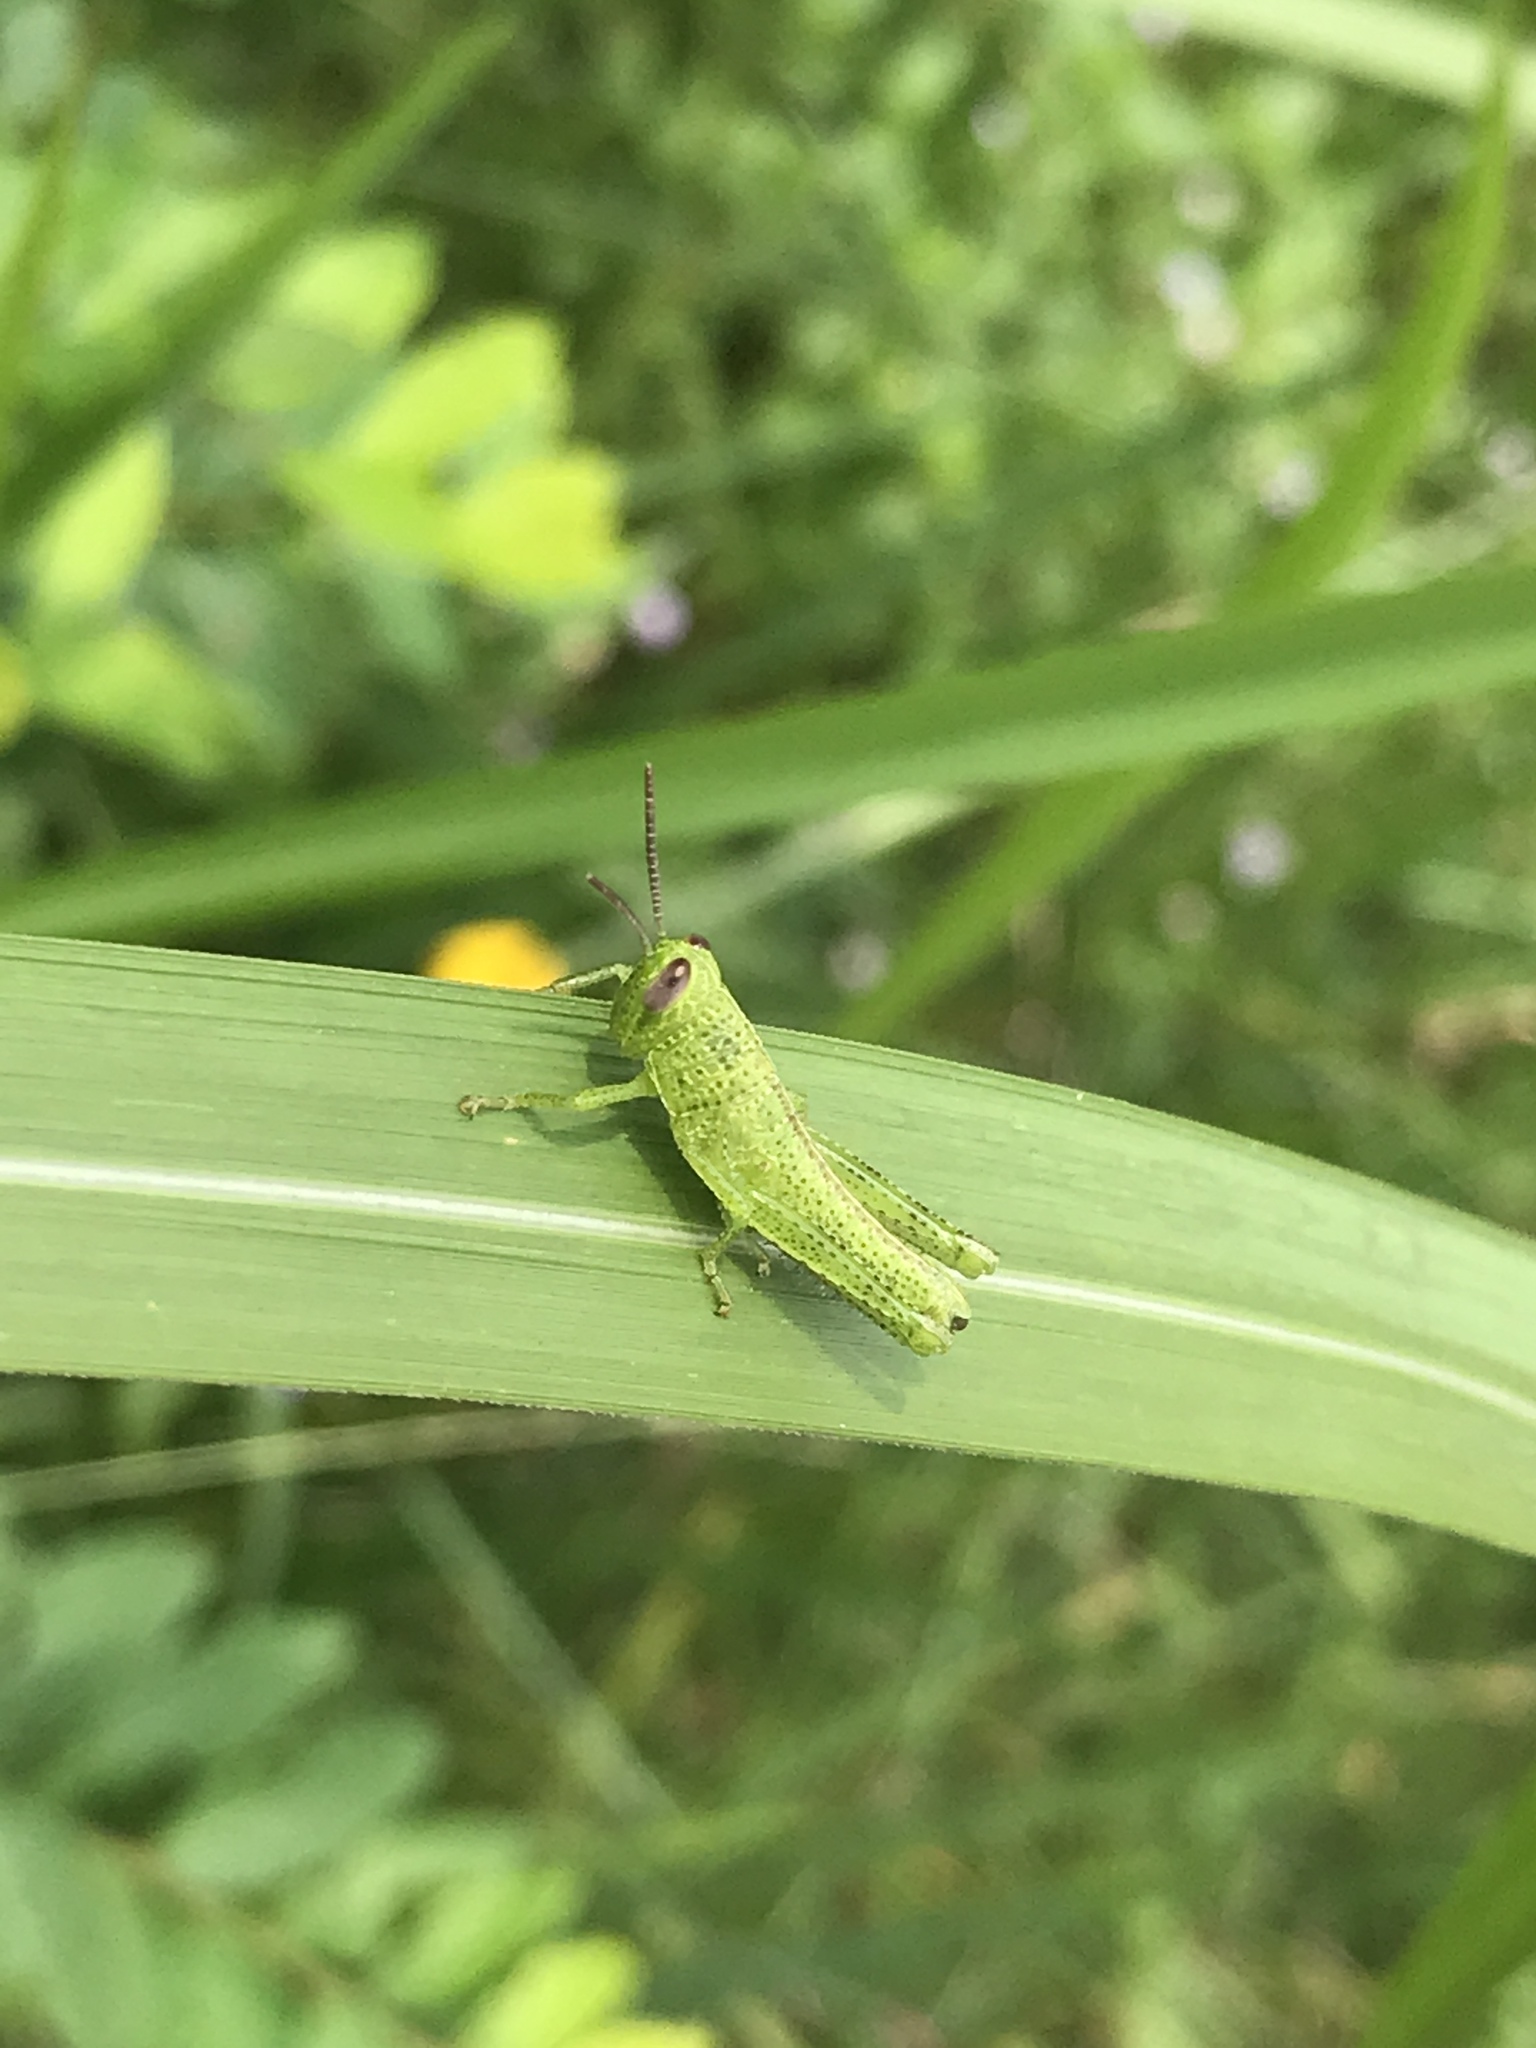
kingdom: Animalia
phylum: Arthropoda
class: Insecta
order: Orthoptera
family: Acrididae
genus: Valanga
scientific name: Valanga nigricornis
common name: Javanese bird grasshopper
